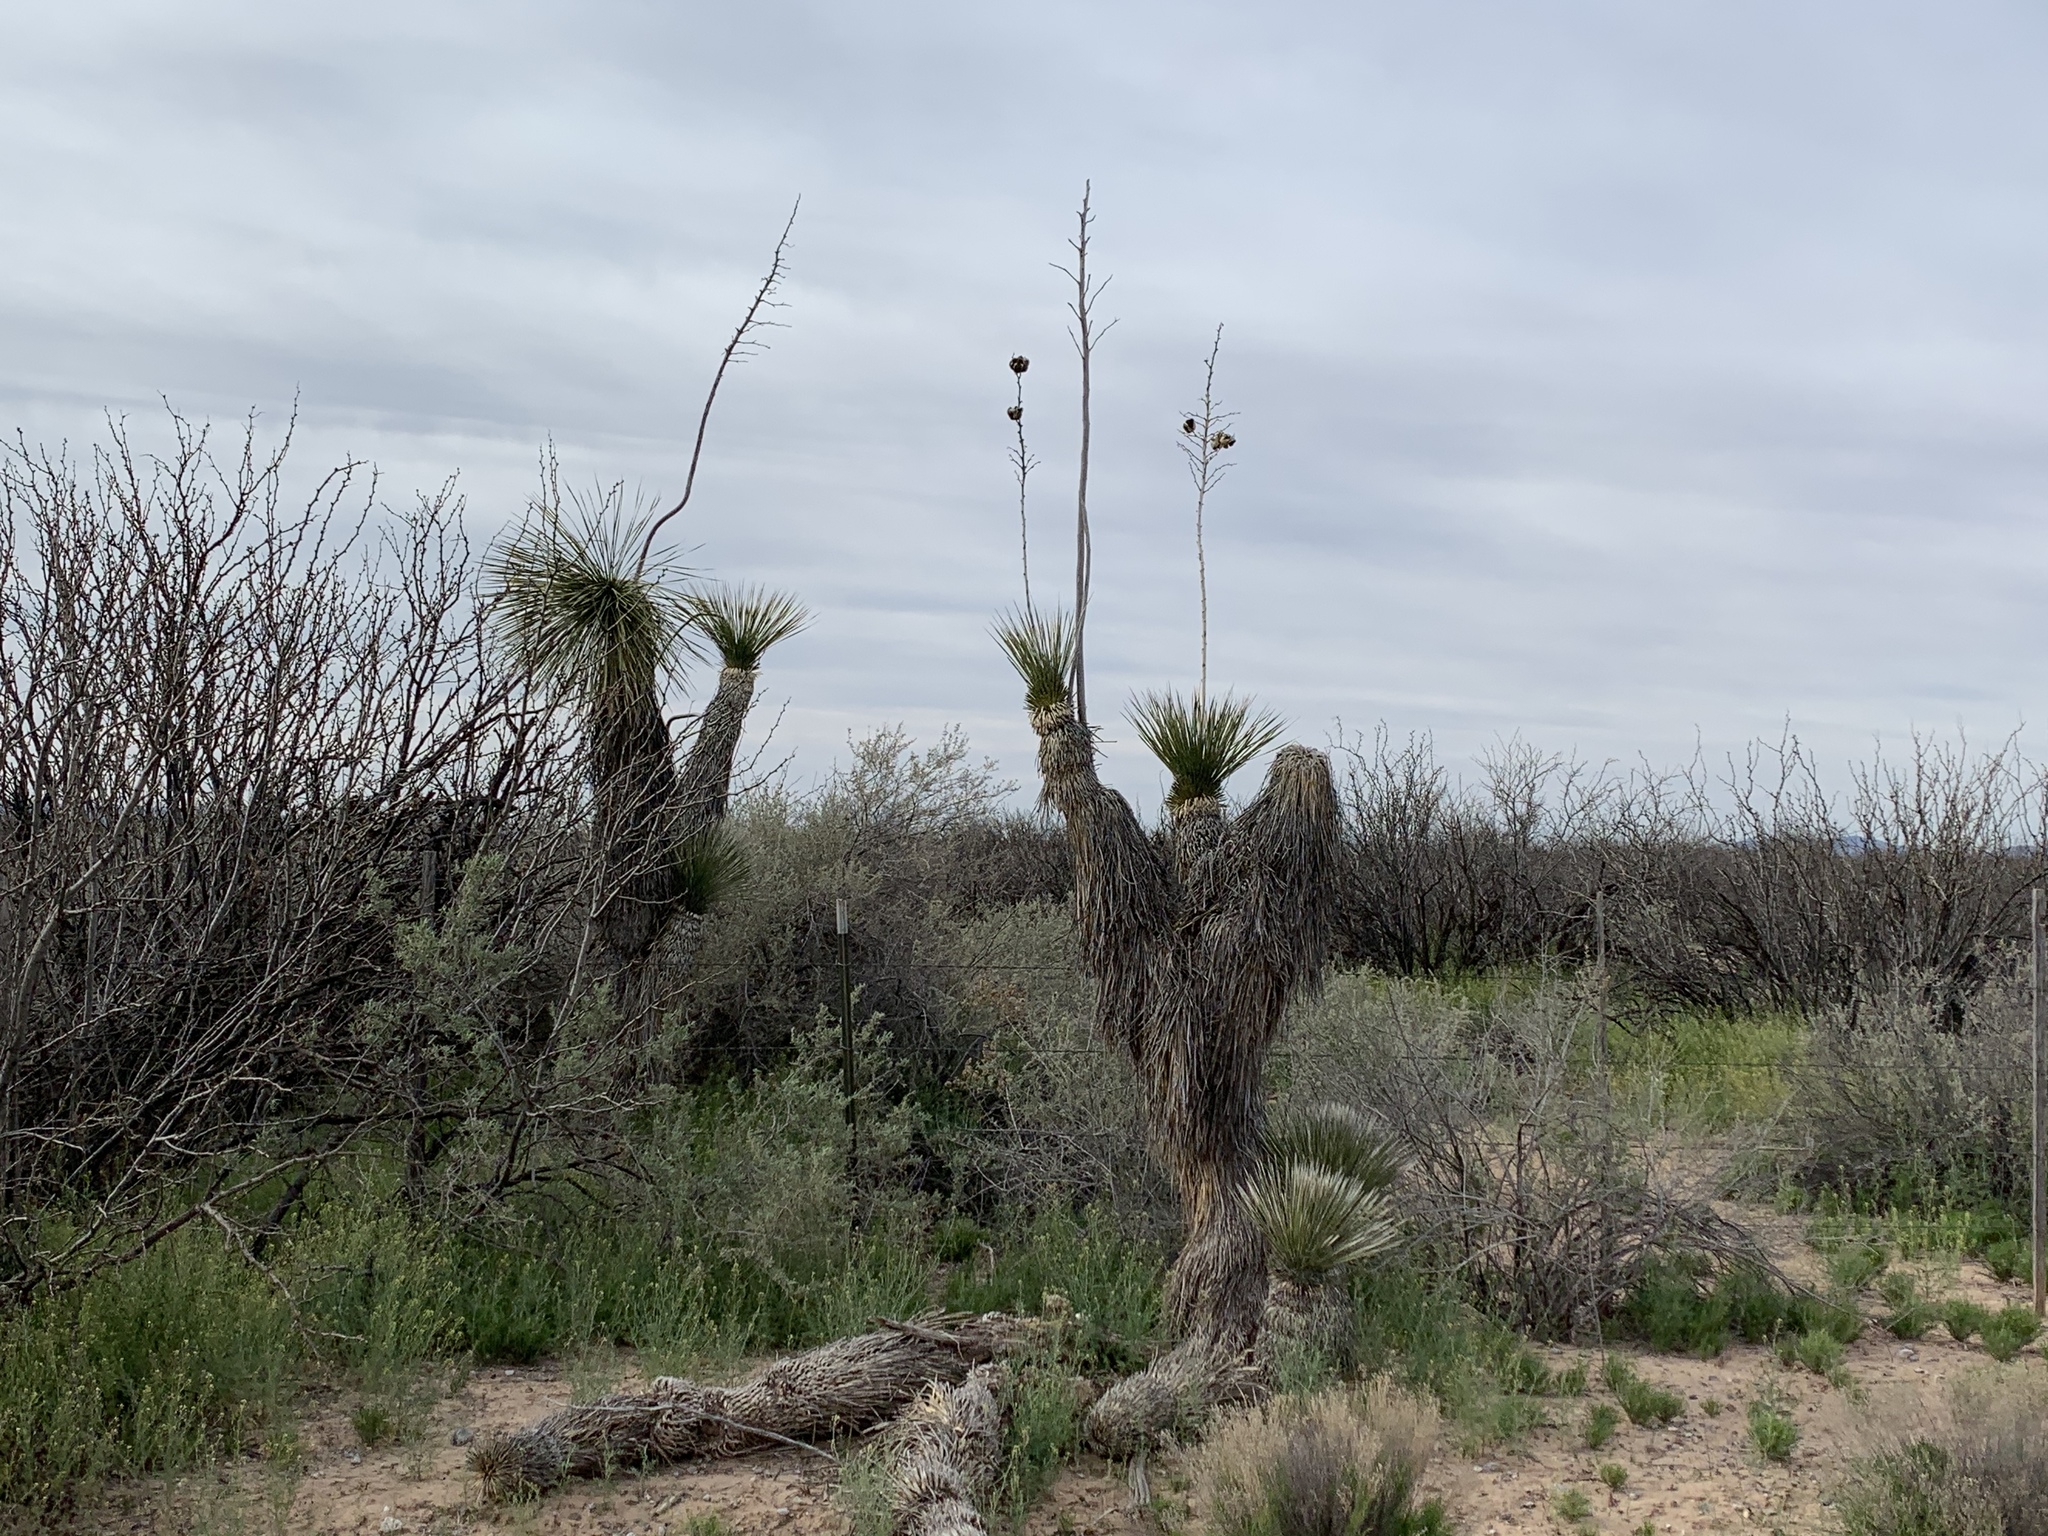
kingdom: Plantae
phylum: Tracheophyta
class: Liliopsida
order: Asparagales
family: Asparagaceae
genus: Yucca
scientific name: Yucca elata
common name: Palmella
